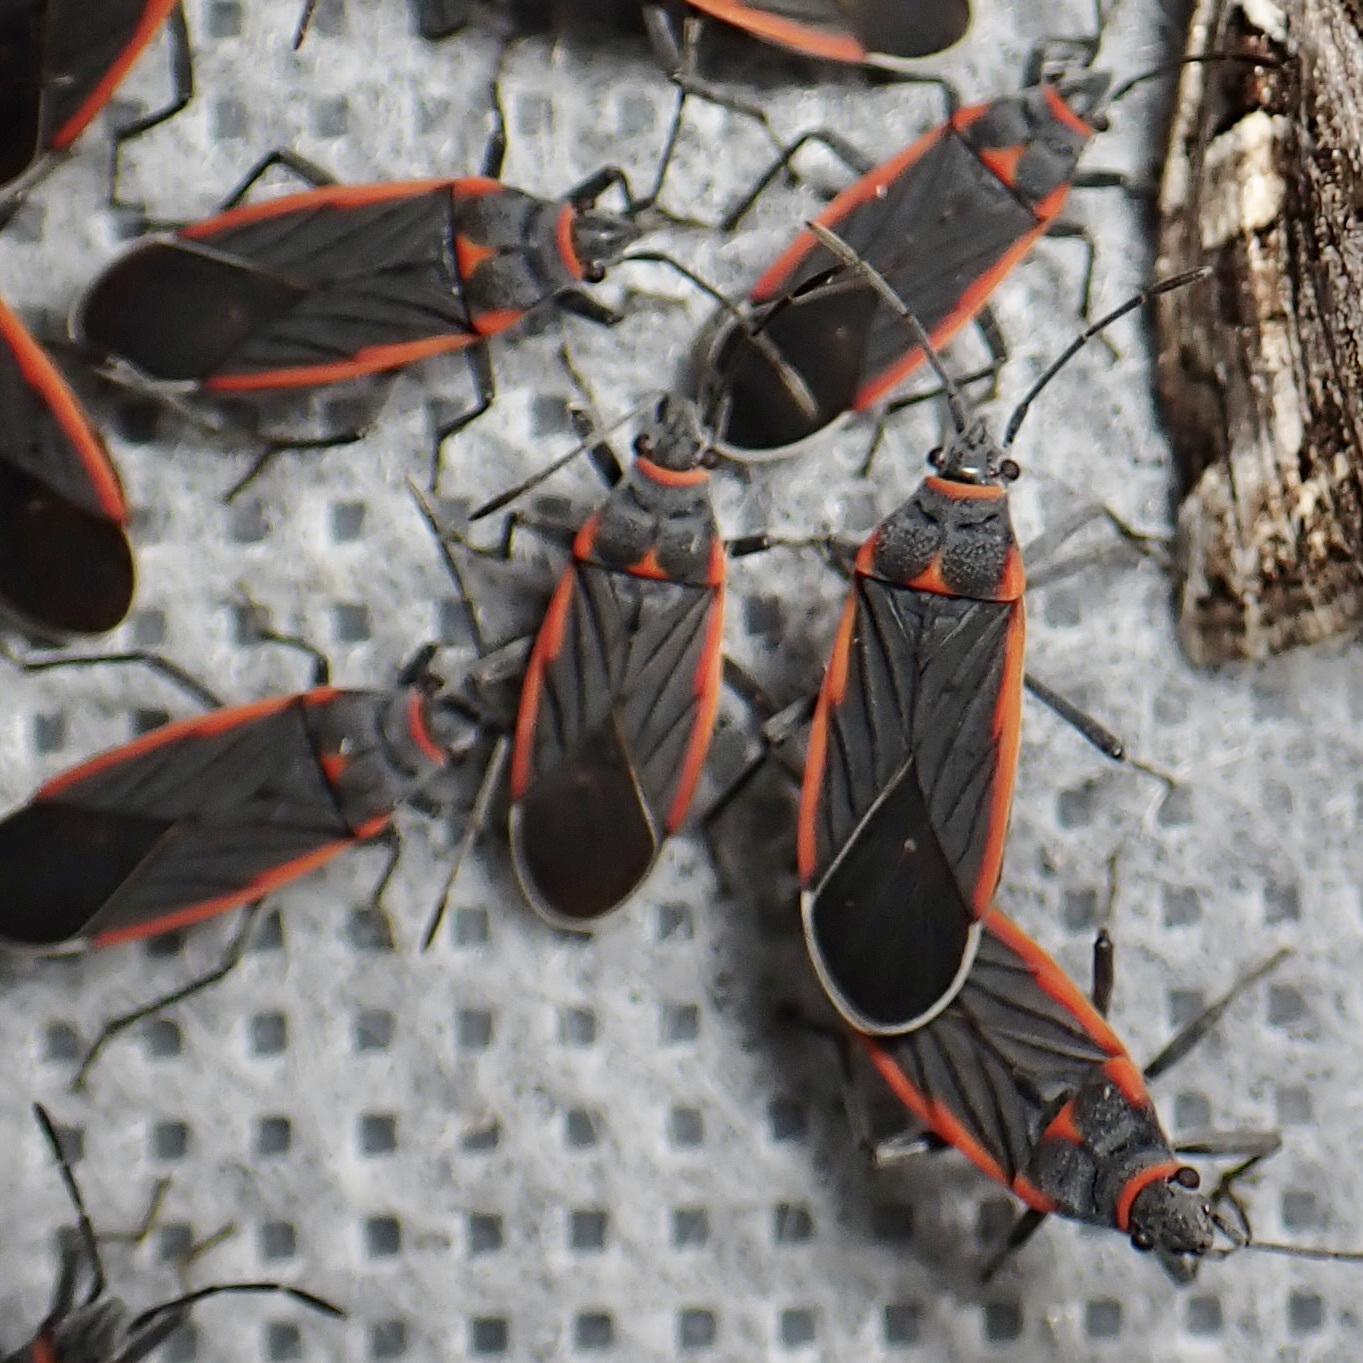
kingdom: Animalia
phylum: Arthropoda
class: Insecta
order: Hemiptera
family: Lygaeidae
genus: Melacoryphus
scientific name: Melacoryphus lateralis
